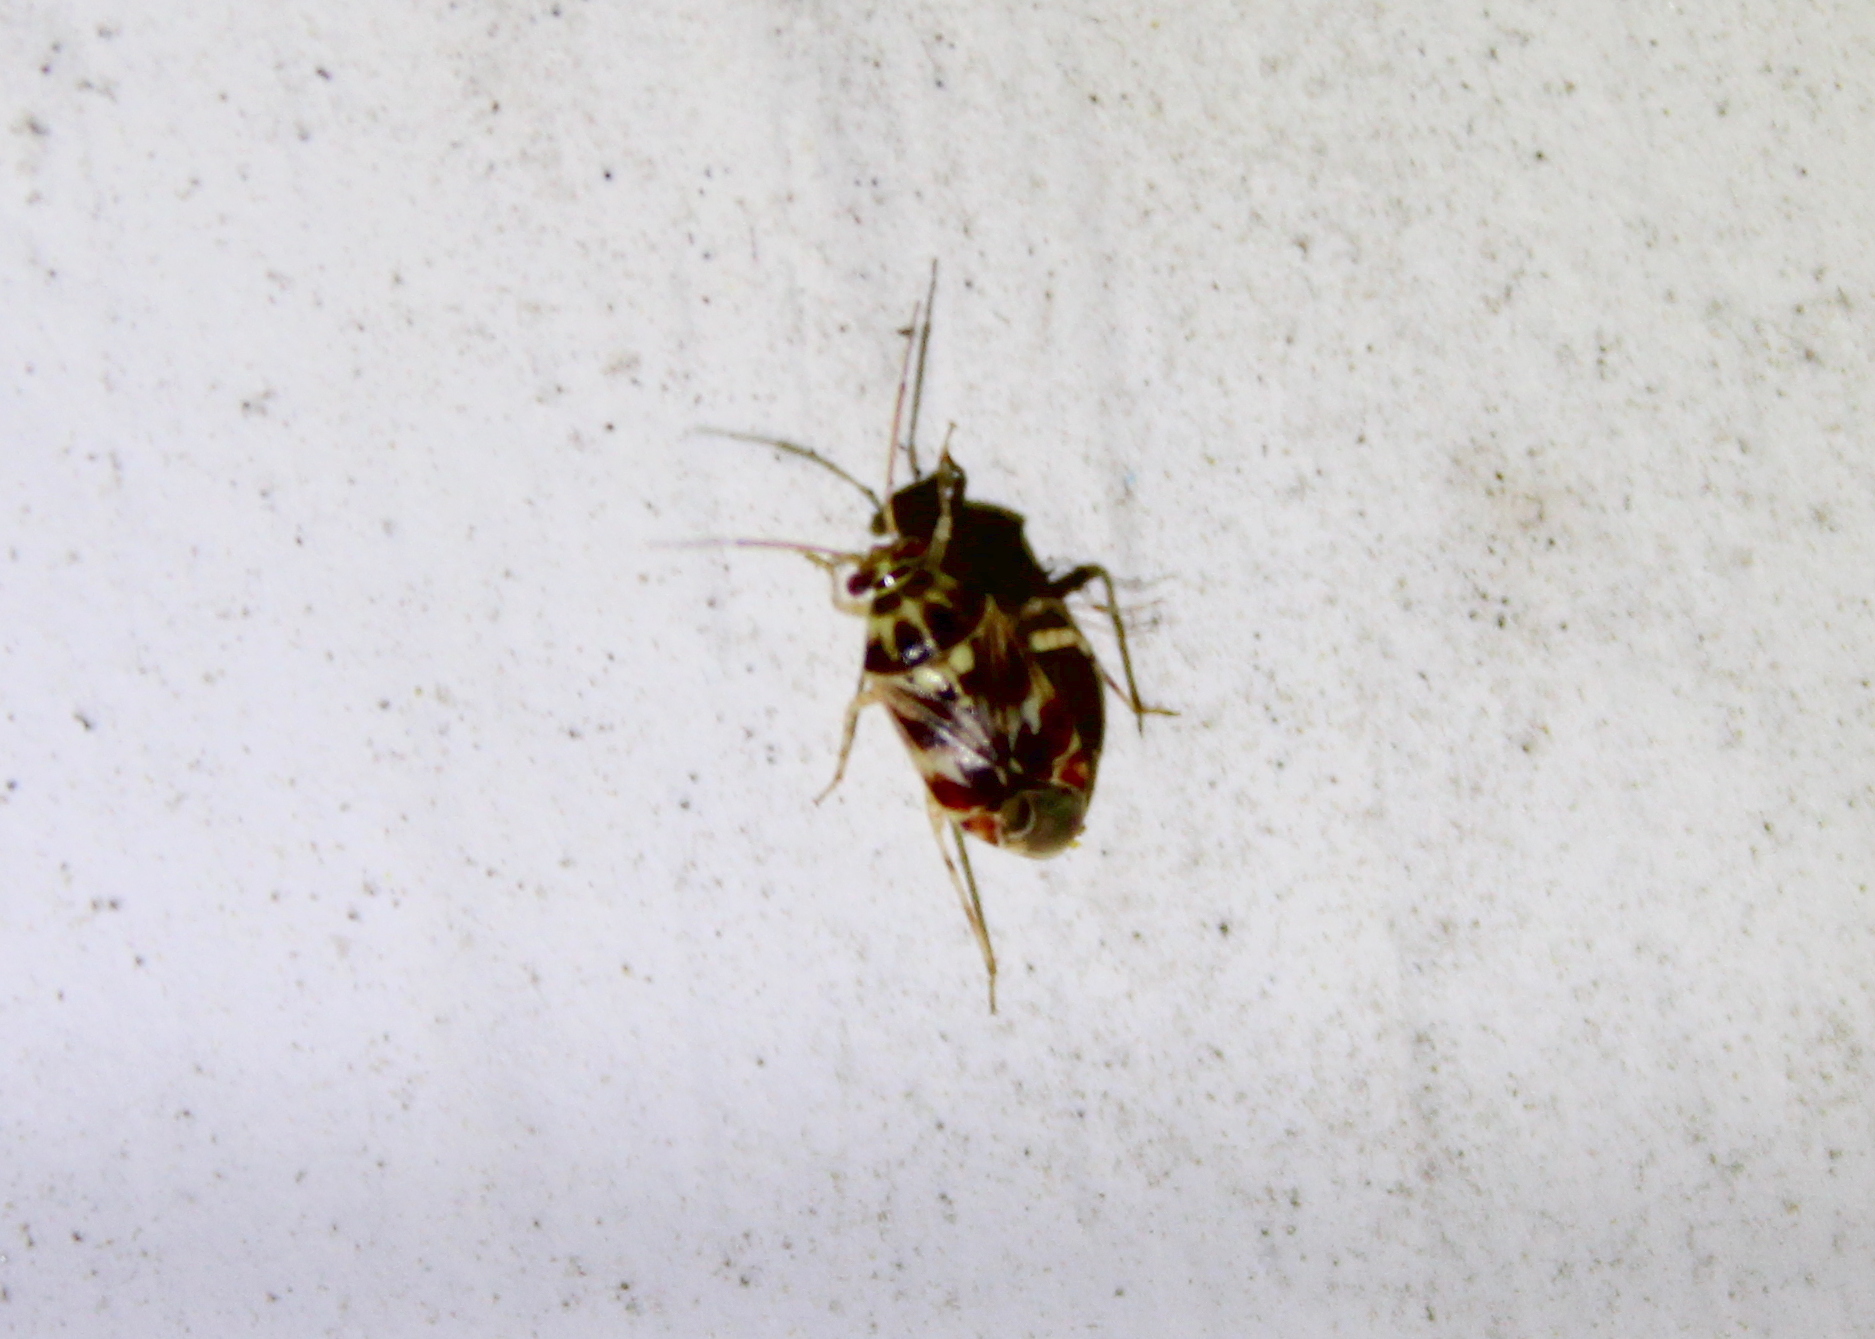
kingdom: Animalia
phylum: Arthropoda
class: Insecta
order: Hemiptera
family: Miridae
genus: Tropidosteptes
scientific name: Tropidosteptes quercicola
